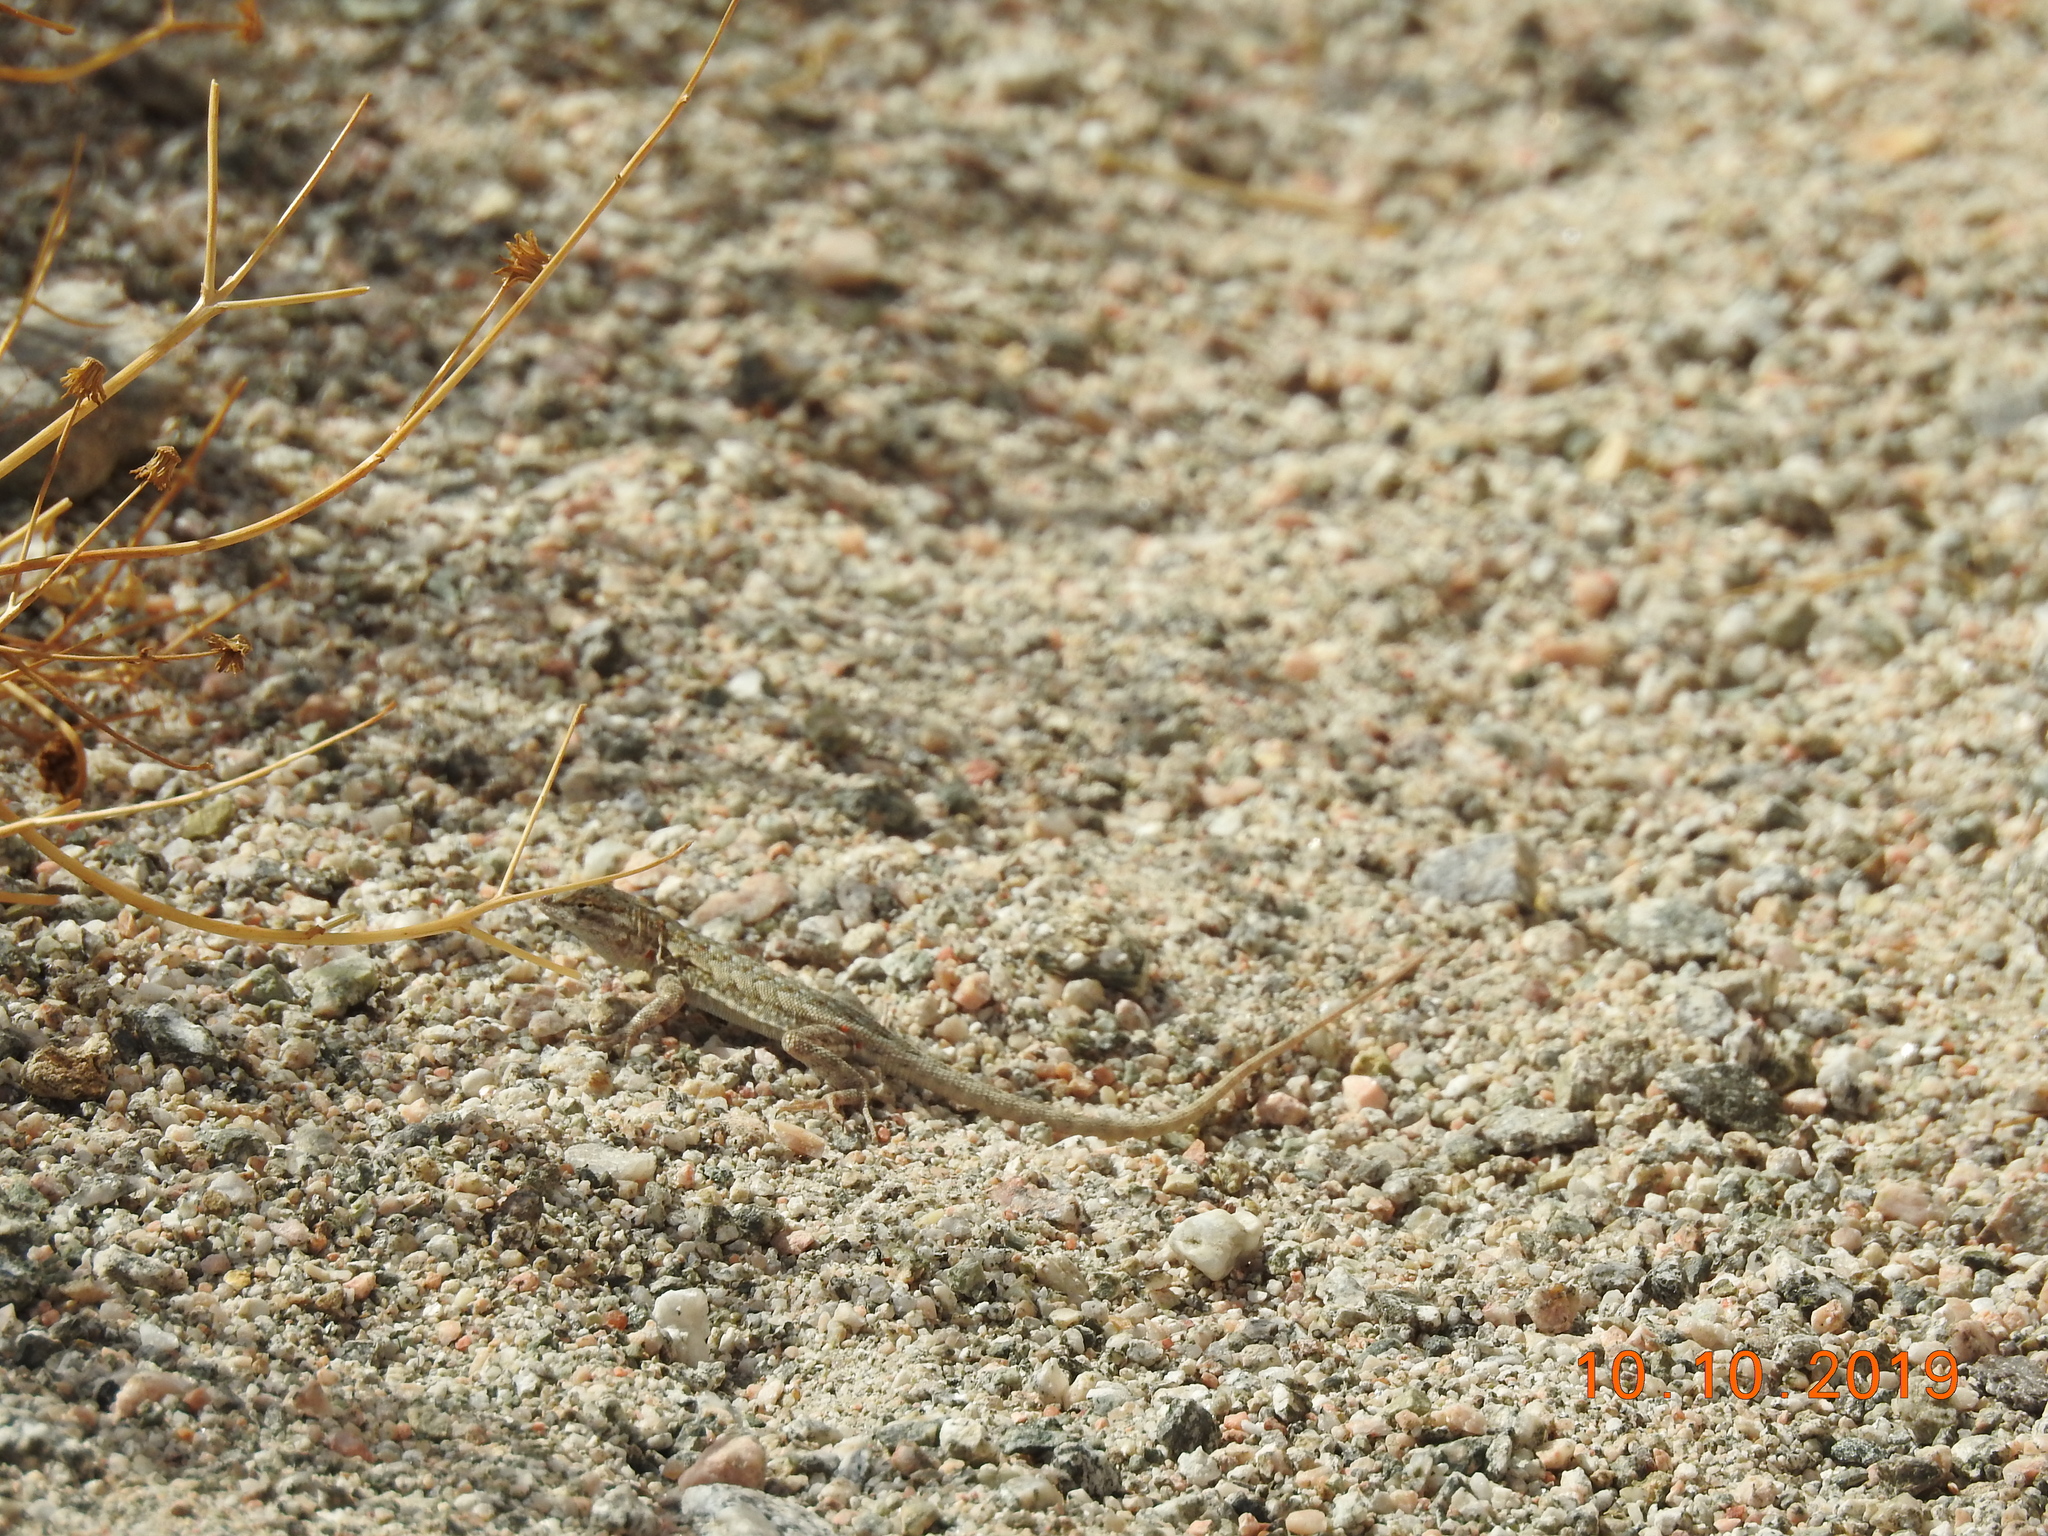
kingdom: Animalia
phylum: Chordata
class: Squamata
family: Phrynosomatidae
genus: Uta
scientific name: Uta stansburiana
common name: Side-blotched lizard
